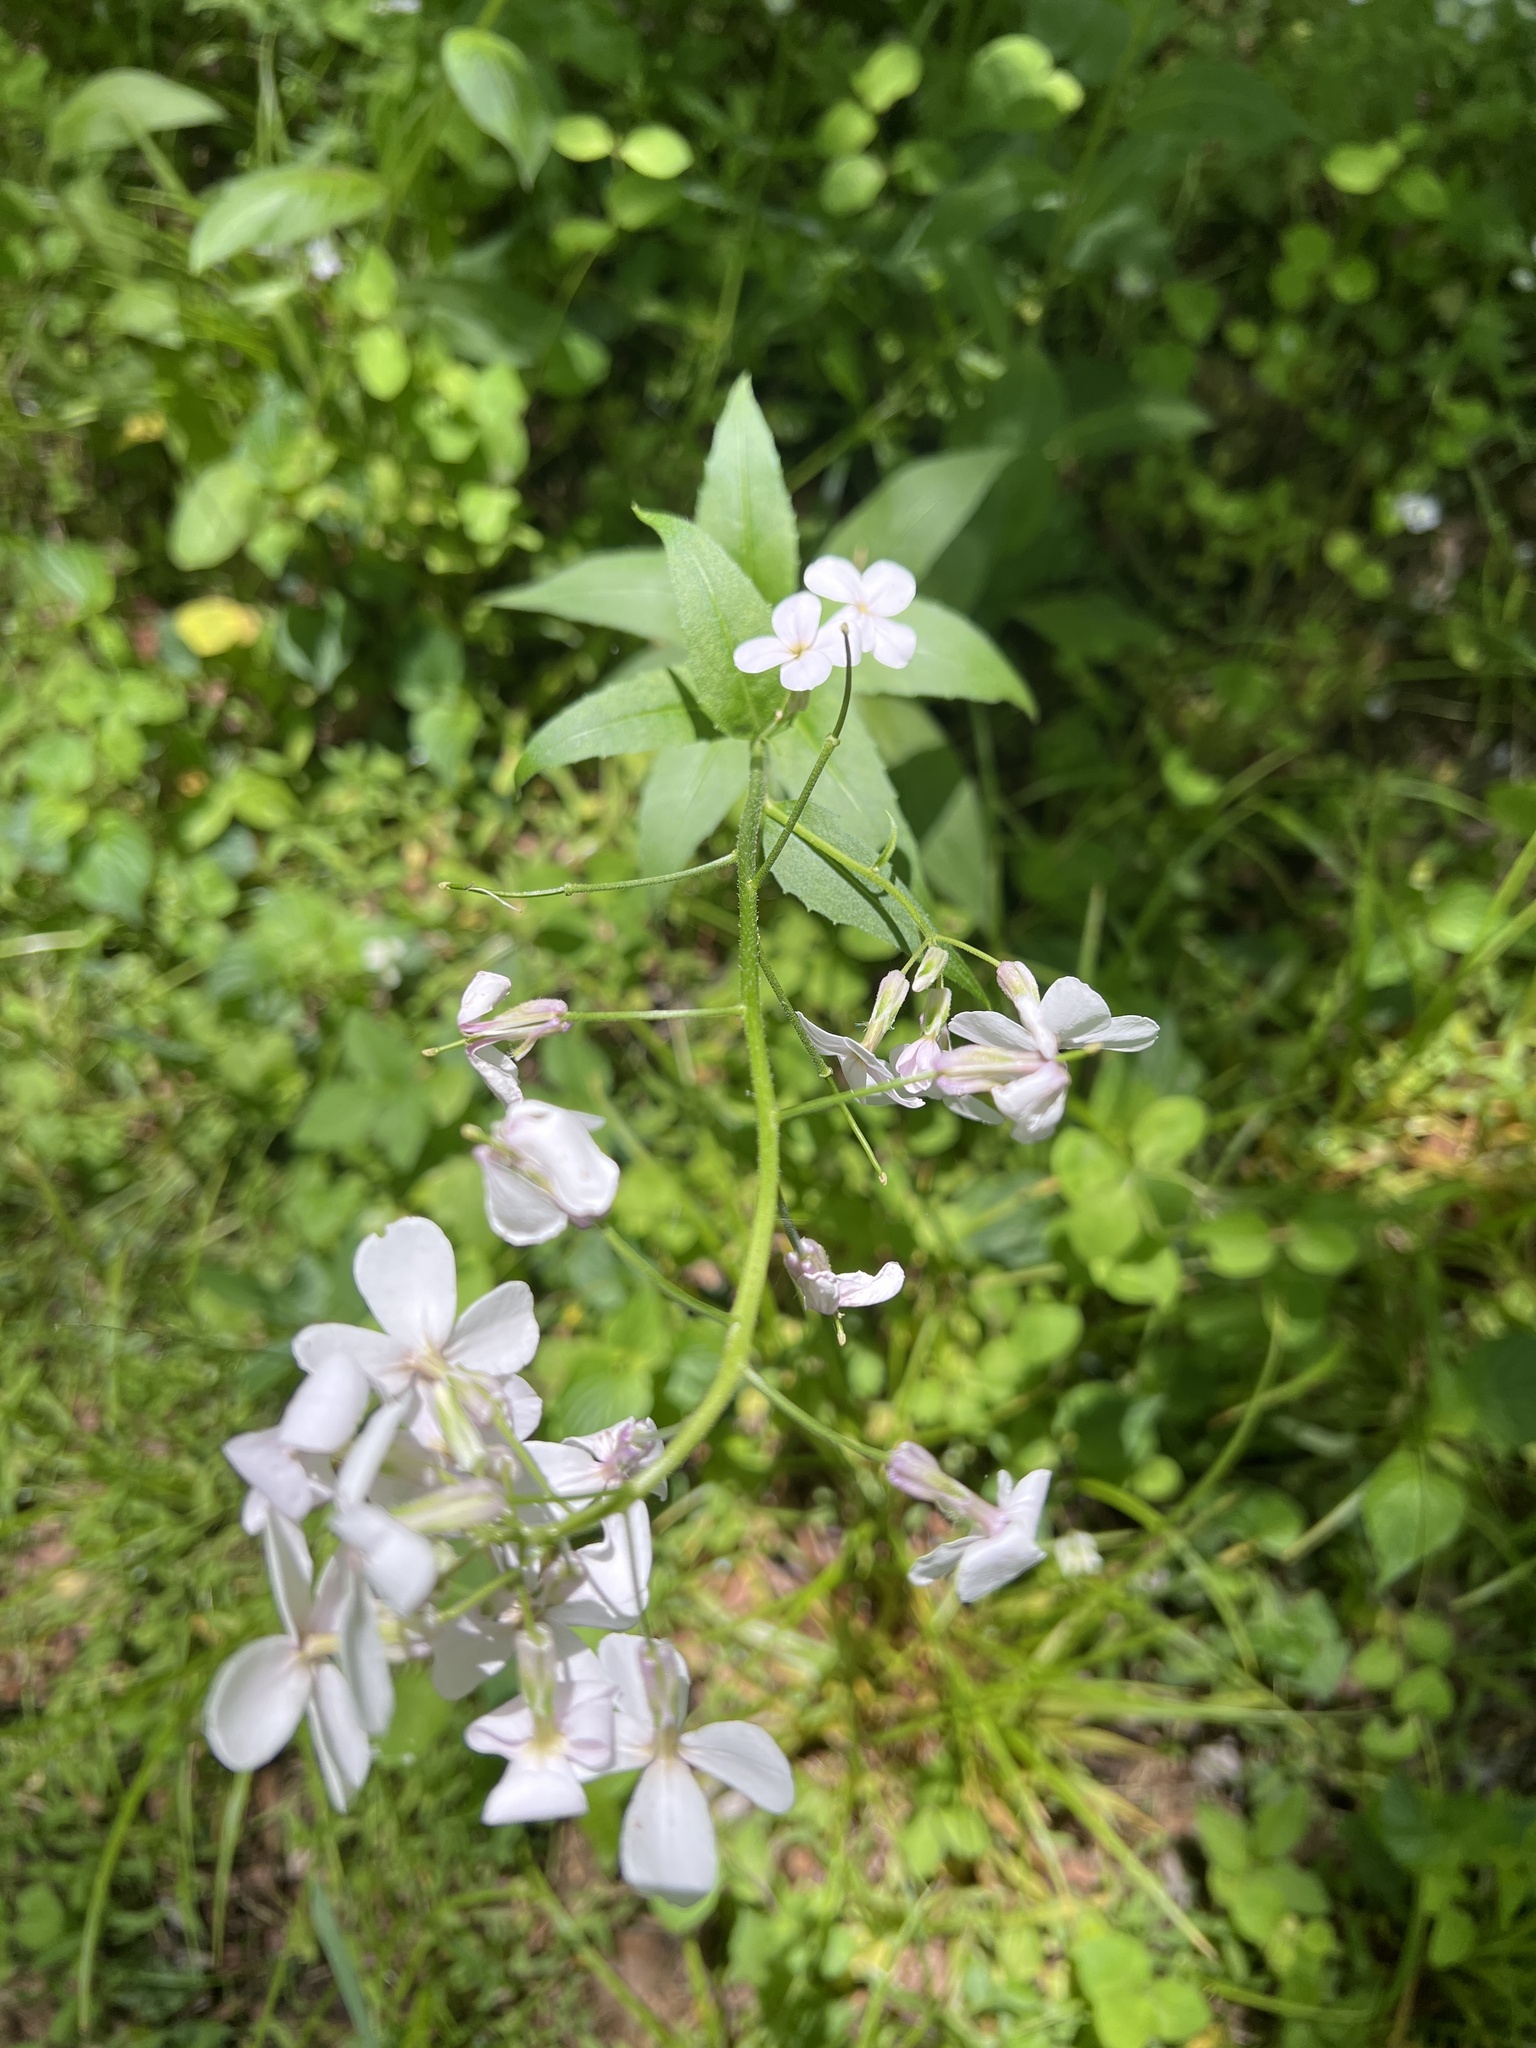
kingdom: Plantae
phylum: Tracheophyta
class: Magnoliopsida
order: Brassicales
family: Brassicaceae
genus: Hesperis
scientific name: Hesperis matronalis
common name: Dame's-violet
